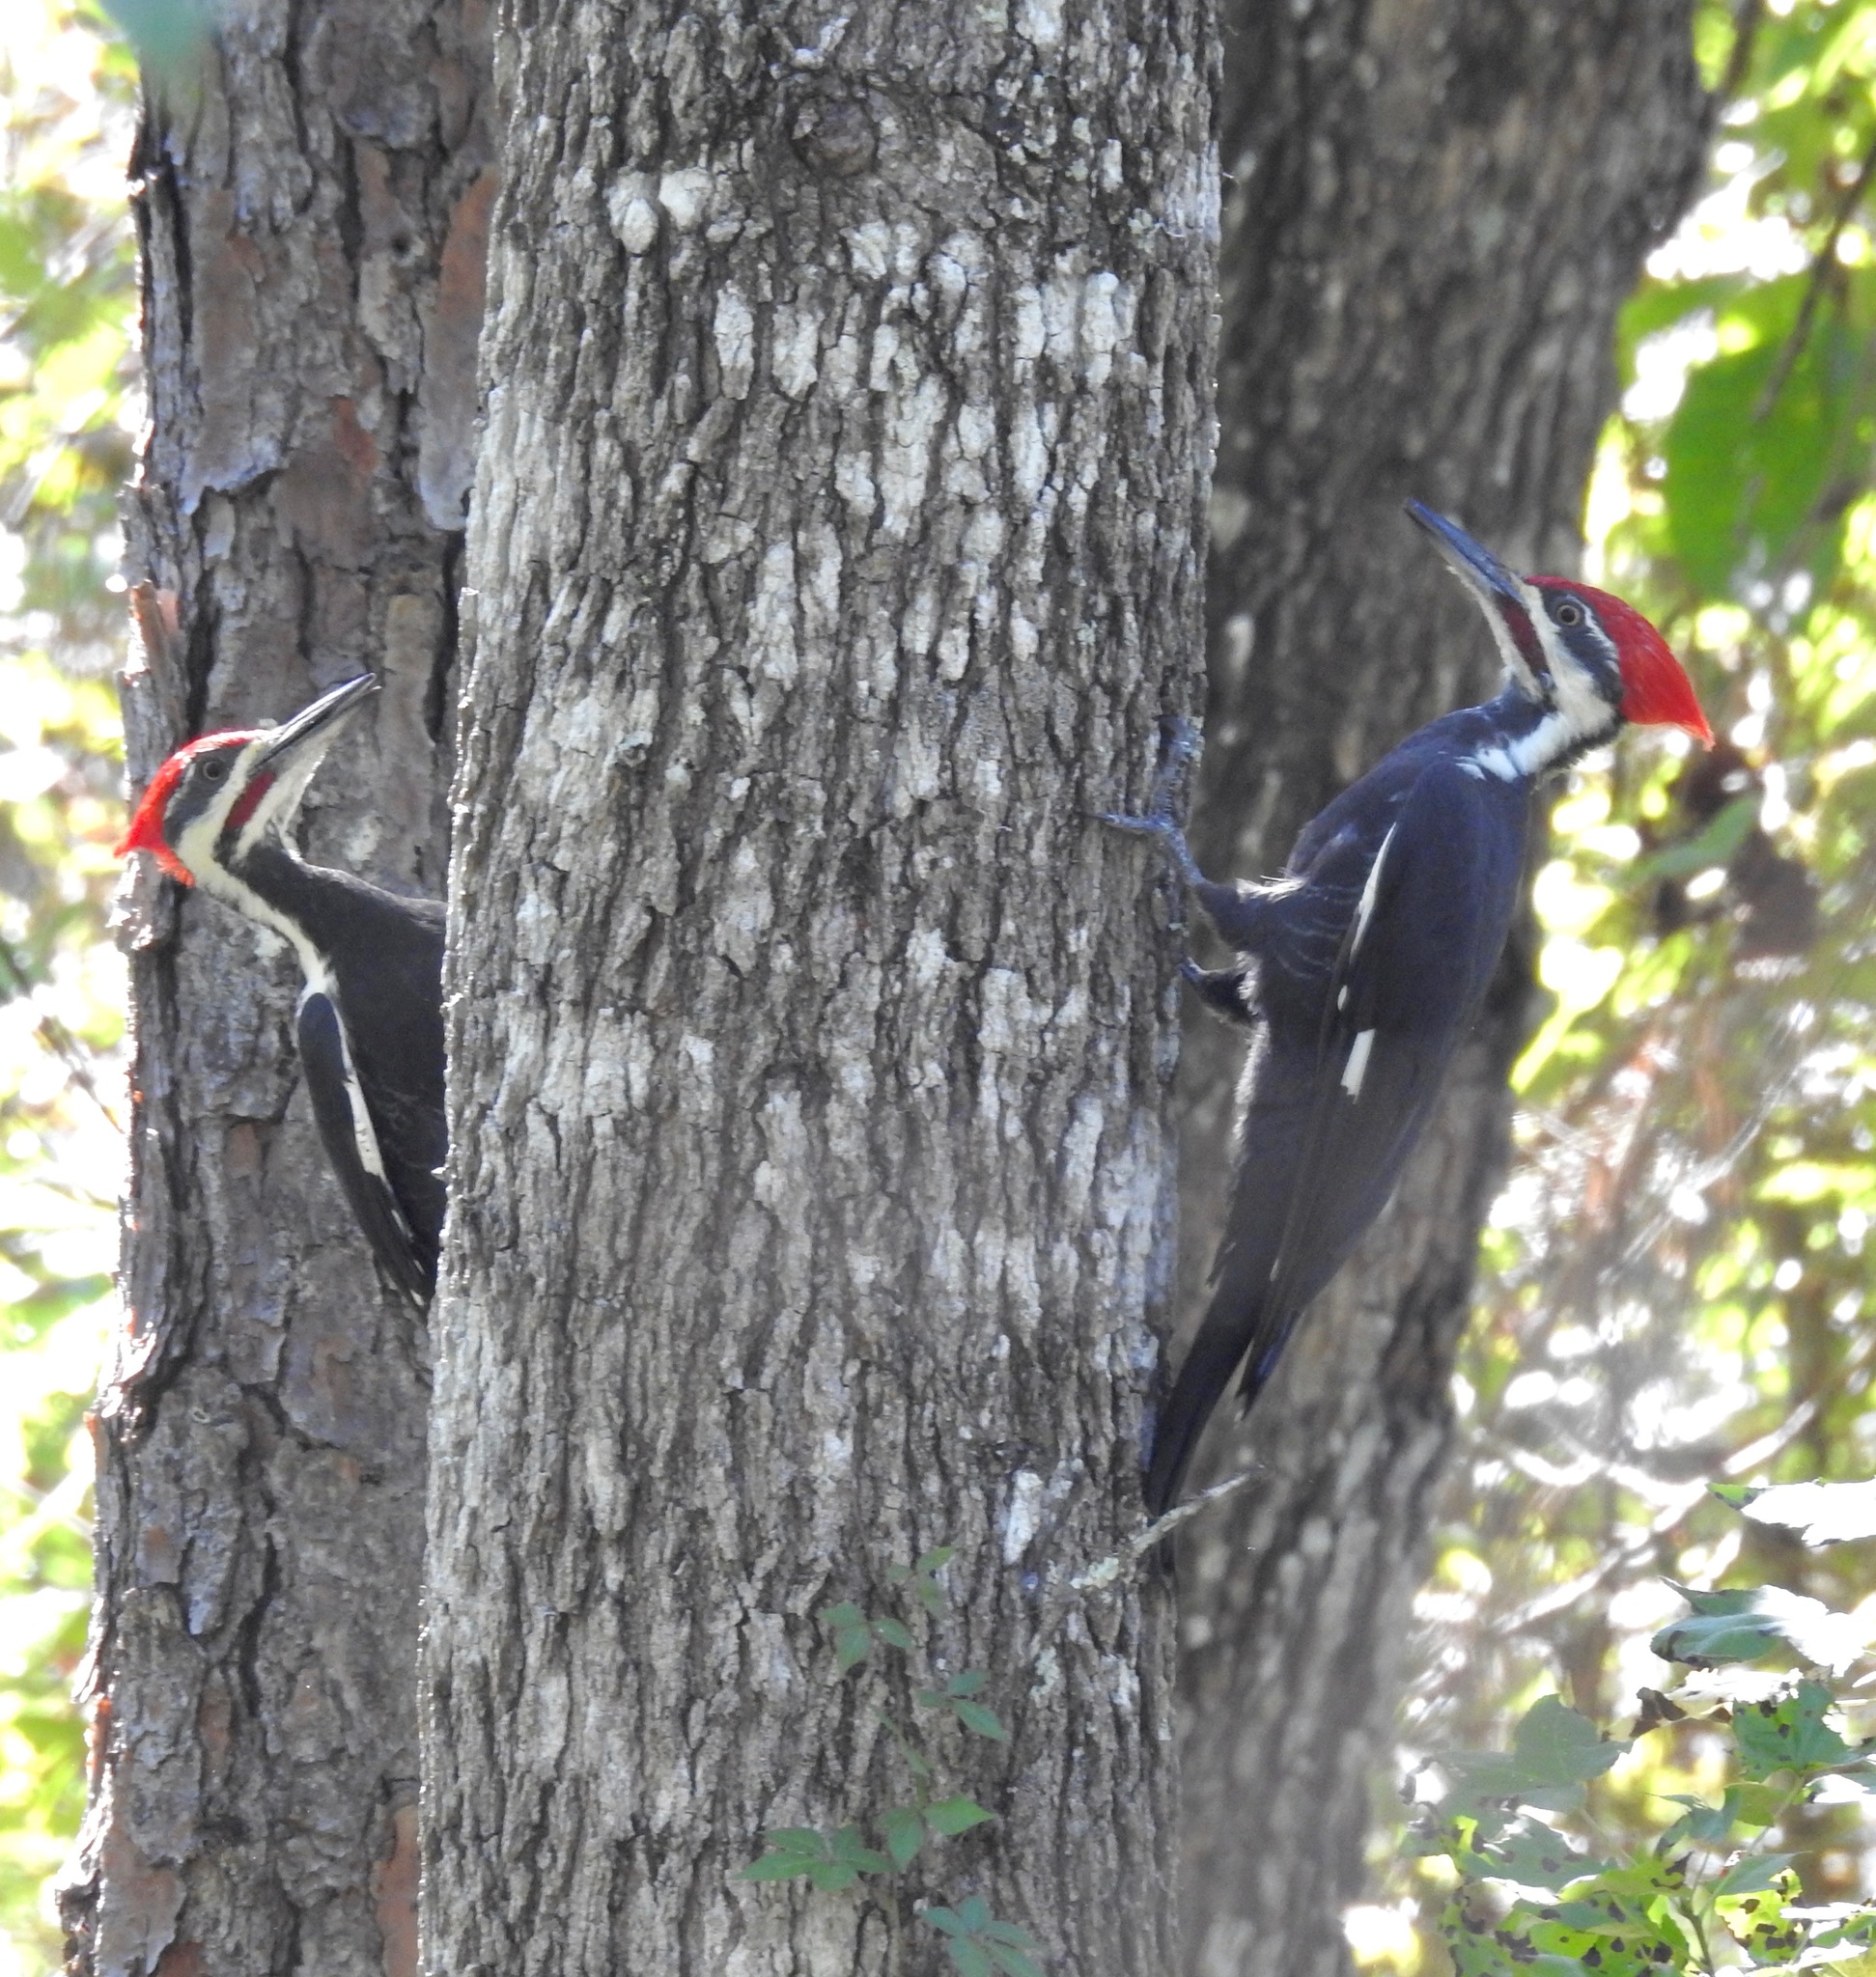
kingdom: Animalia
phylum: Chordata
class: Aves
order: Piciformes
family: Picidae
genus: Dryocopus
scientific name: Dryocopus pileatus
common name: Pileated woodpecker
